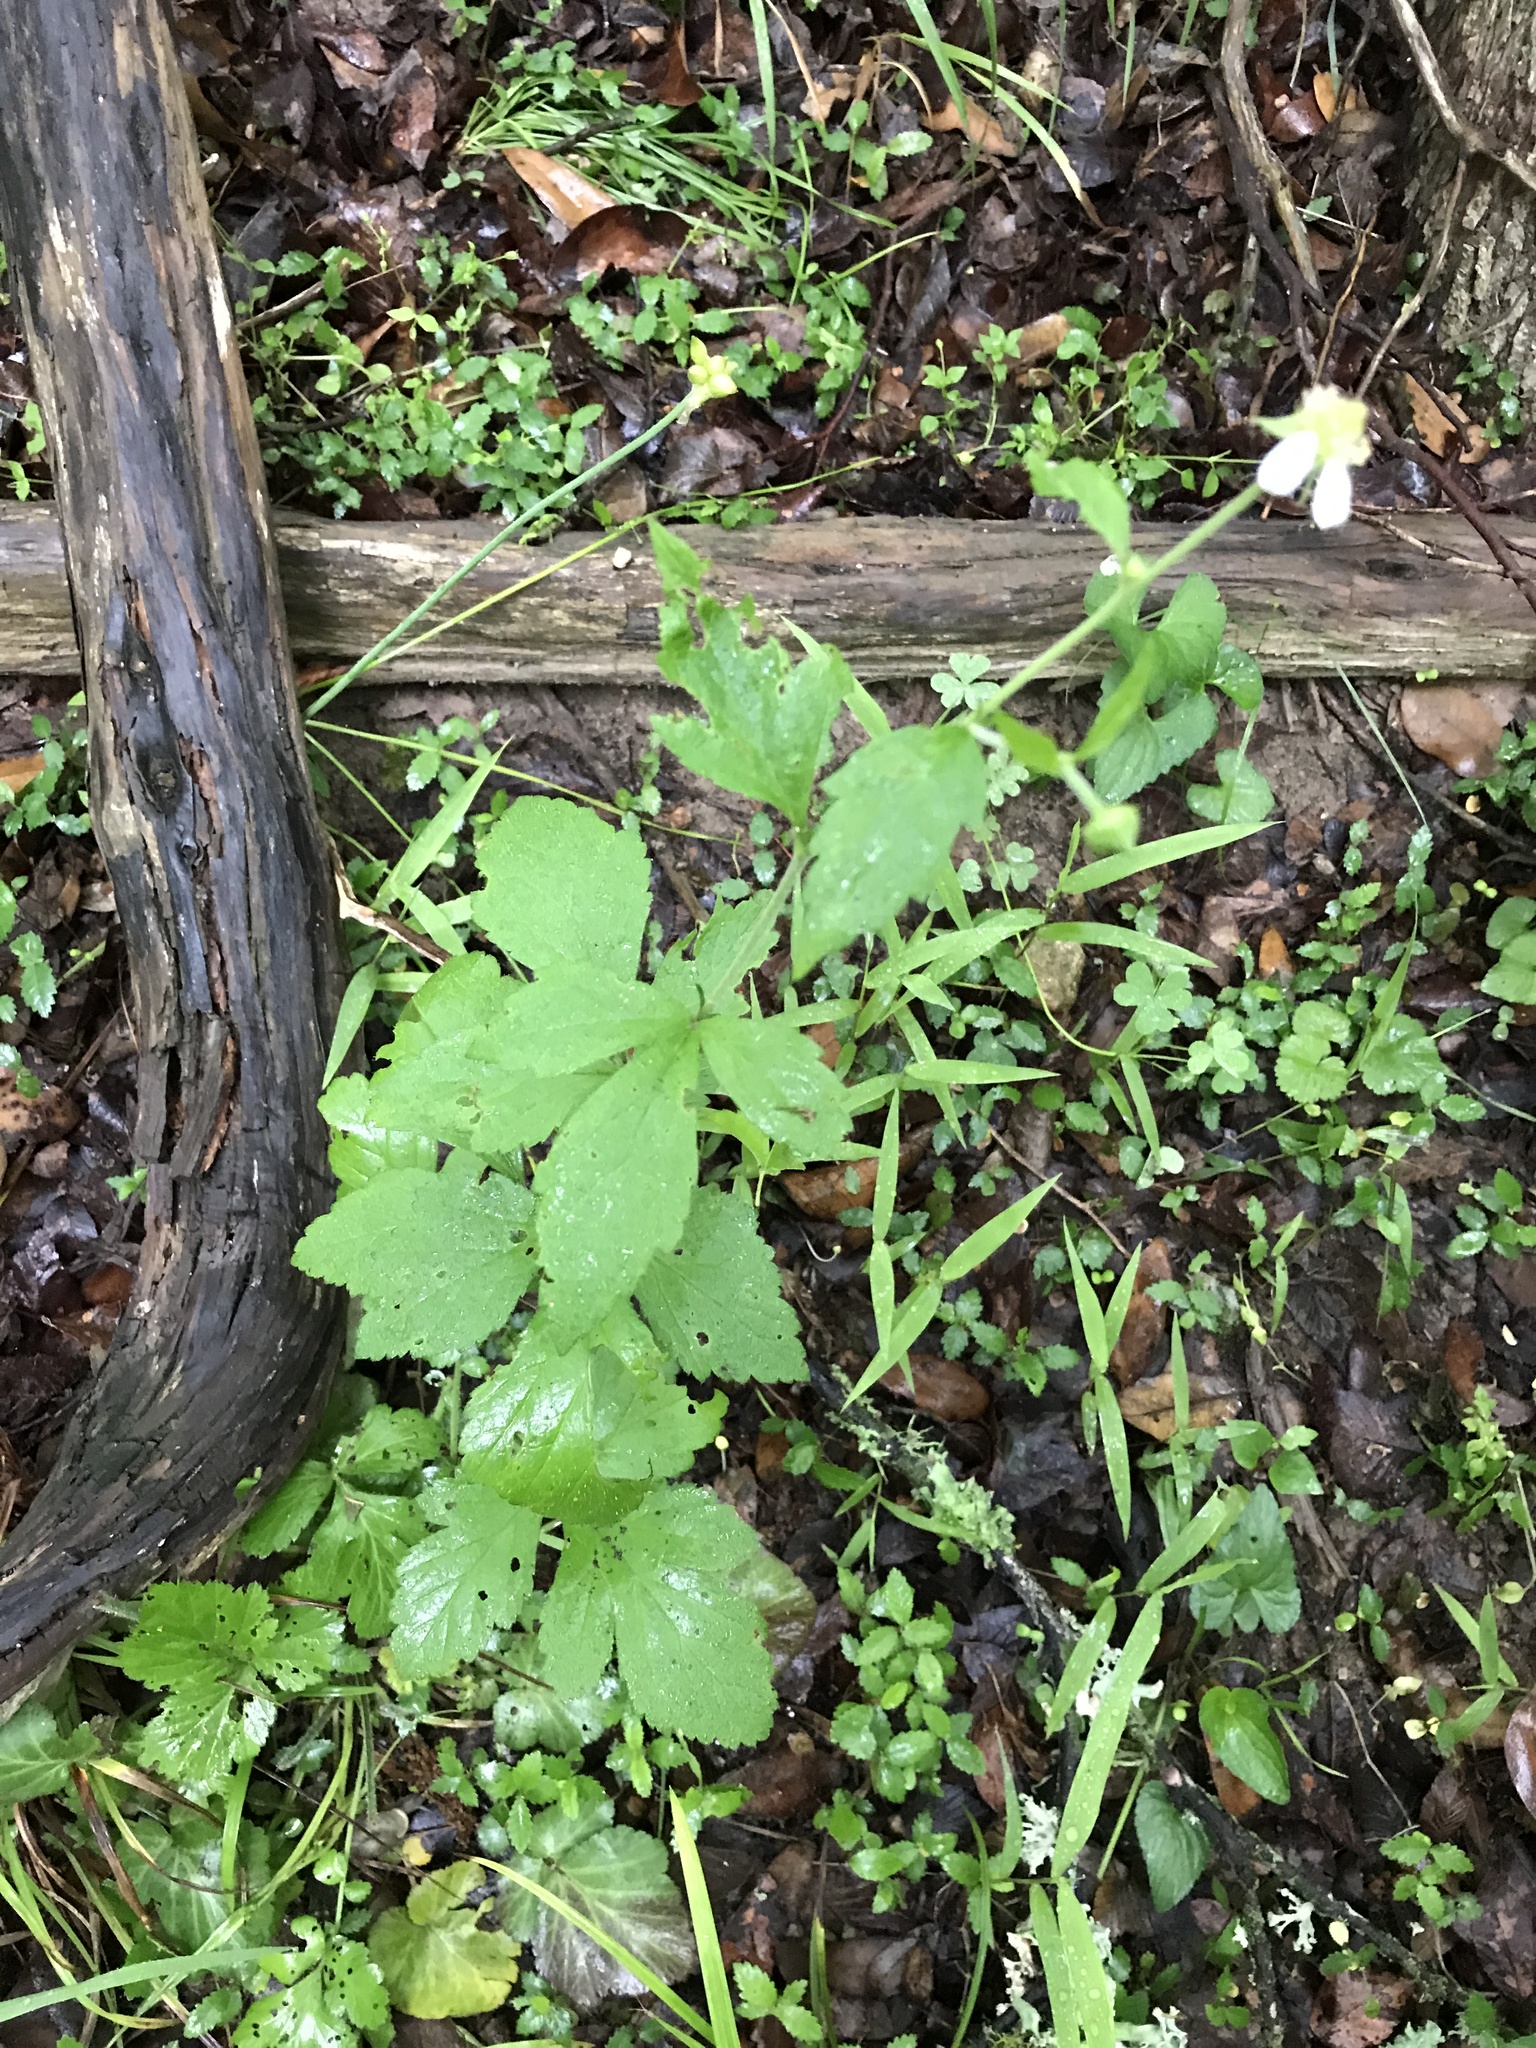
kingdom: Plantae
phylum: Tracheophyta
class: Magnoliopsida
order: Rosales
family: Rosaceae
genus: Geum
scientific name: Geum canadense
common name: White avens
